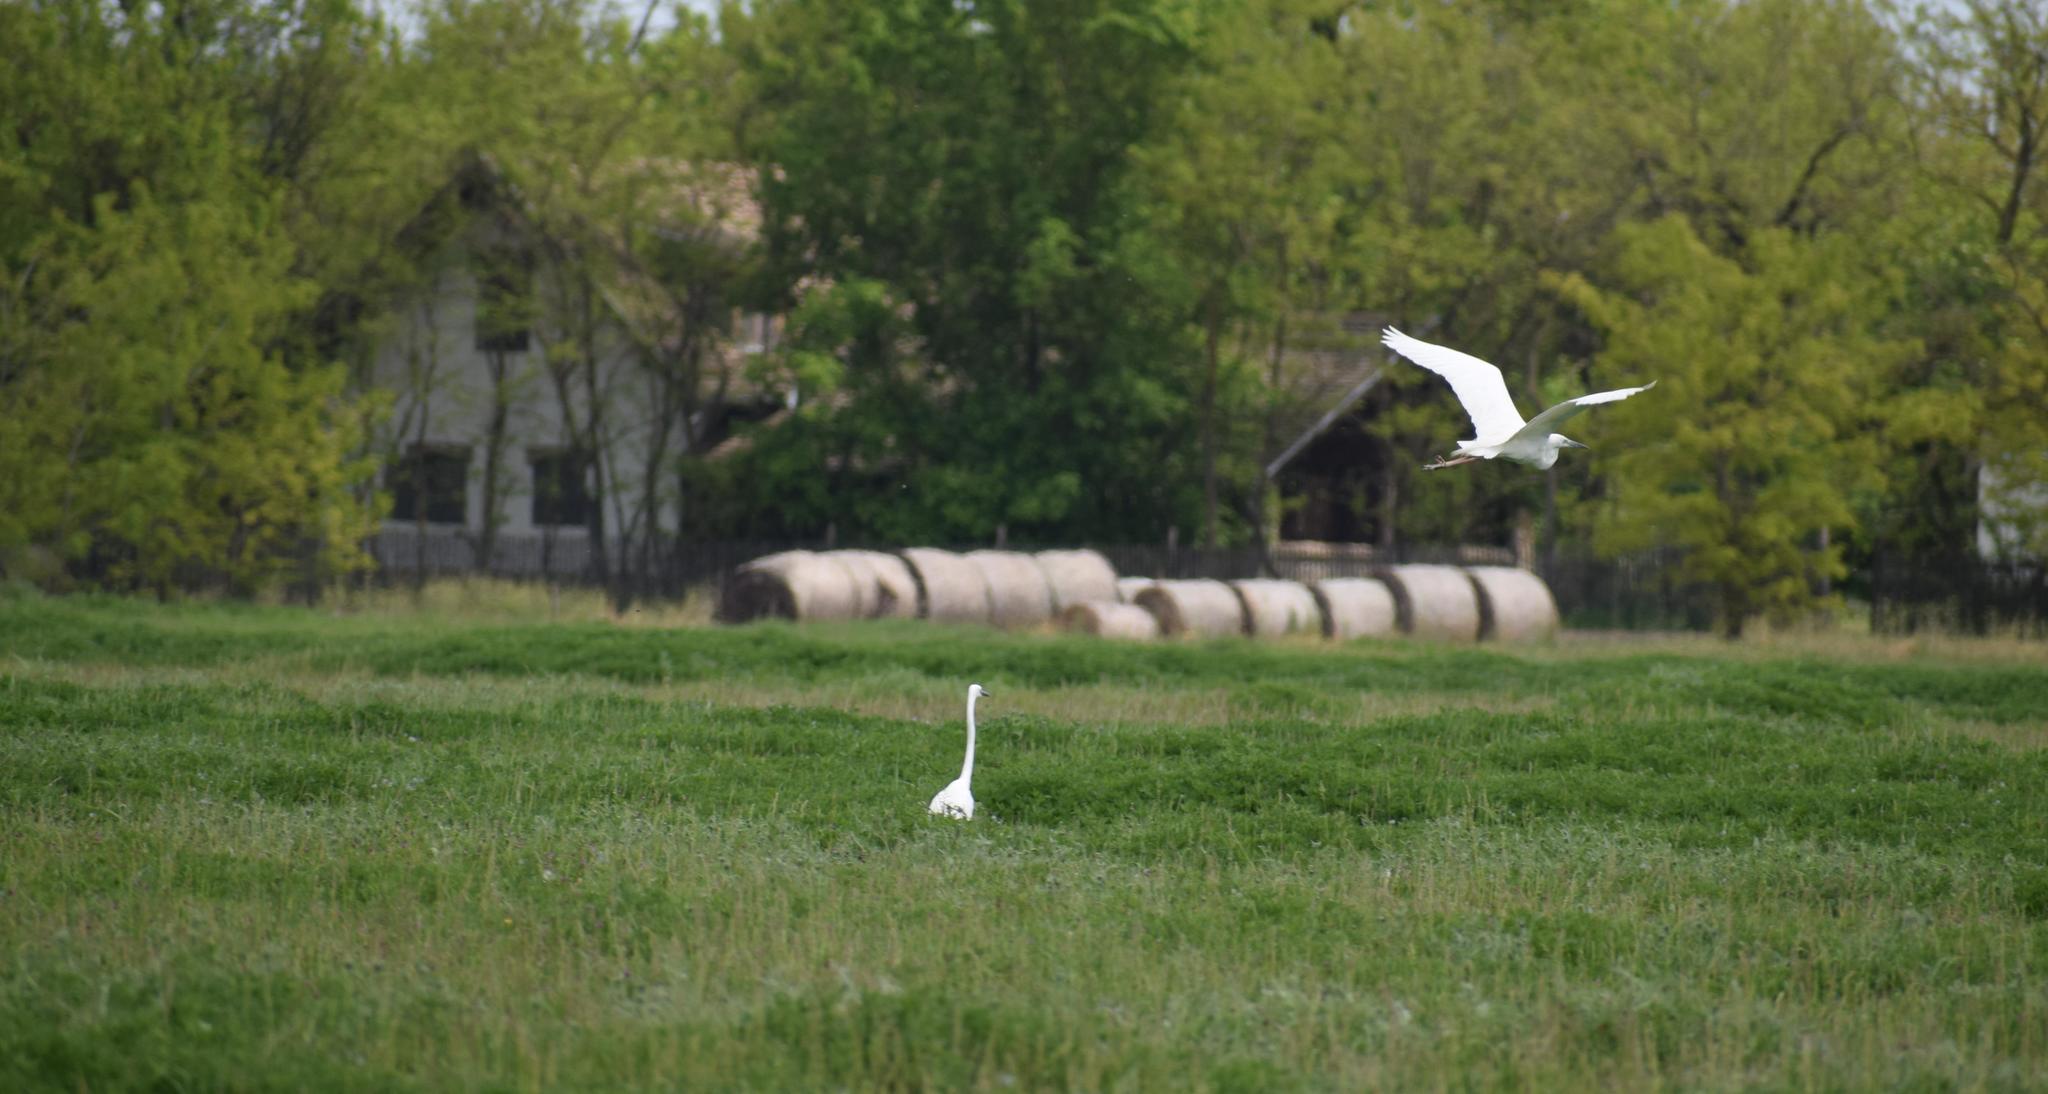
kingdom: Animalia
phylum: Chordata
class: Aves
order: Pelecaniformes
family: Ardeidae
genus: Ardea
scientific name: Ardea alba
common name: Great egret
